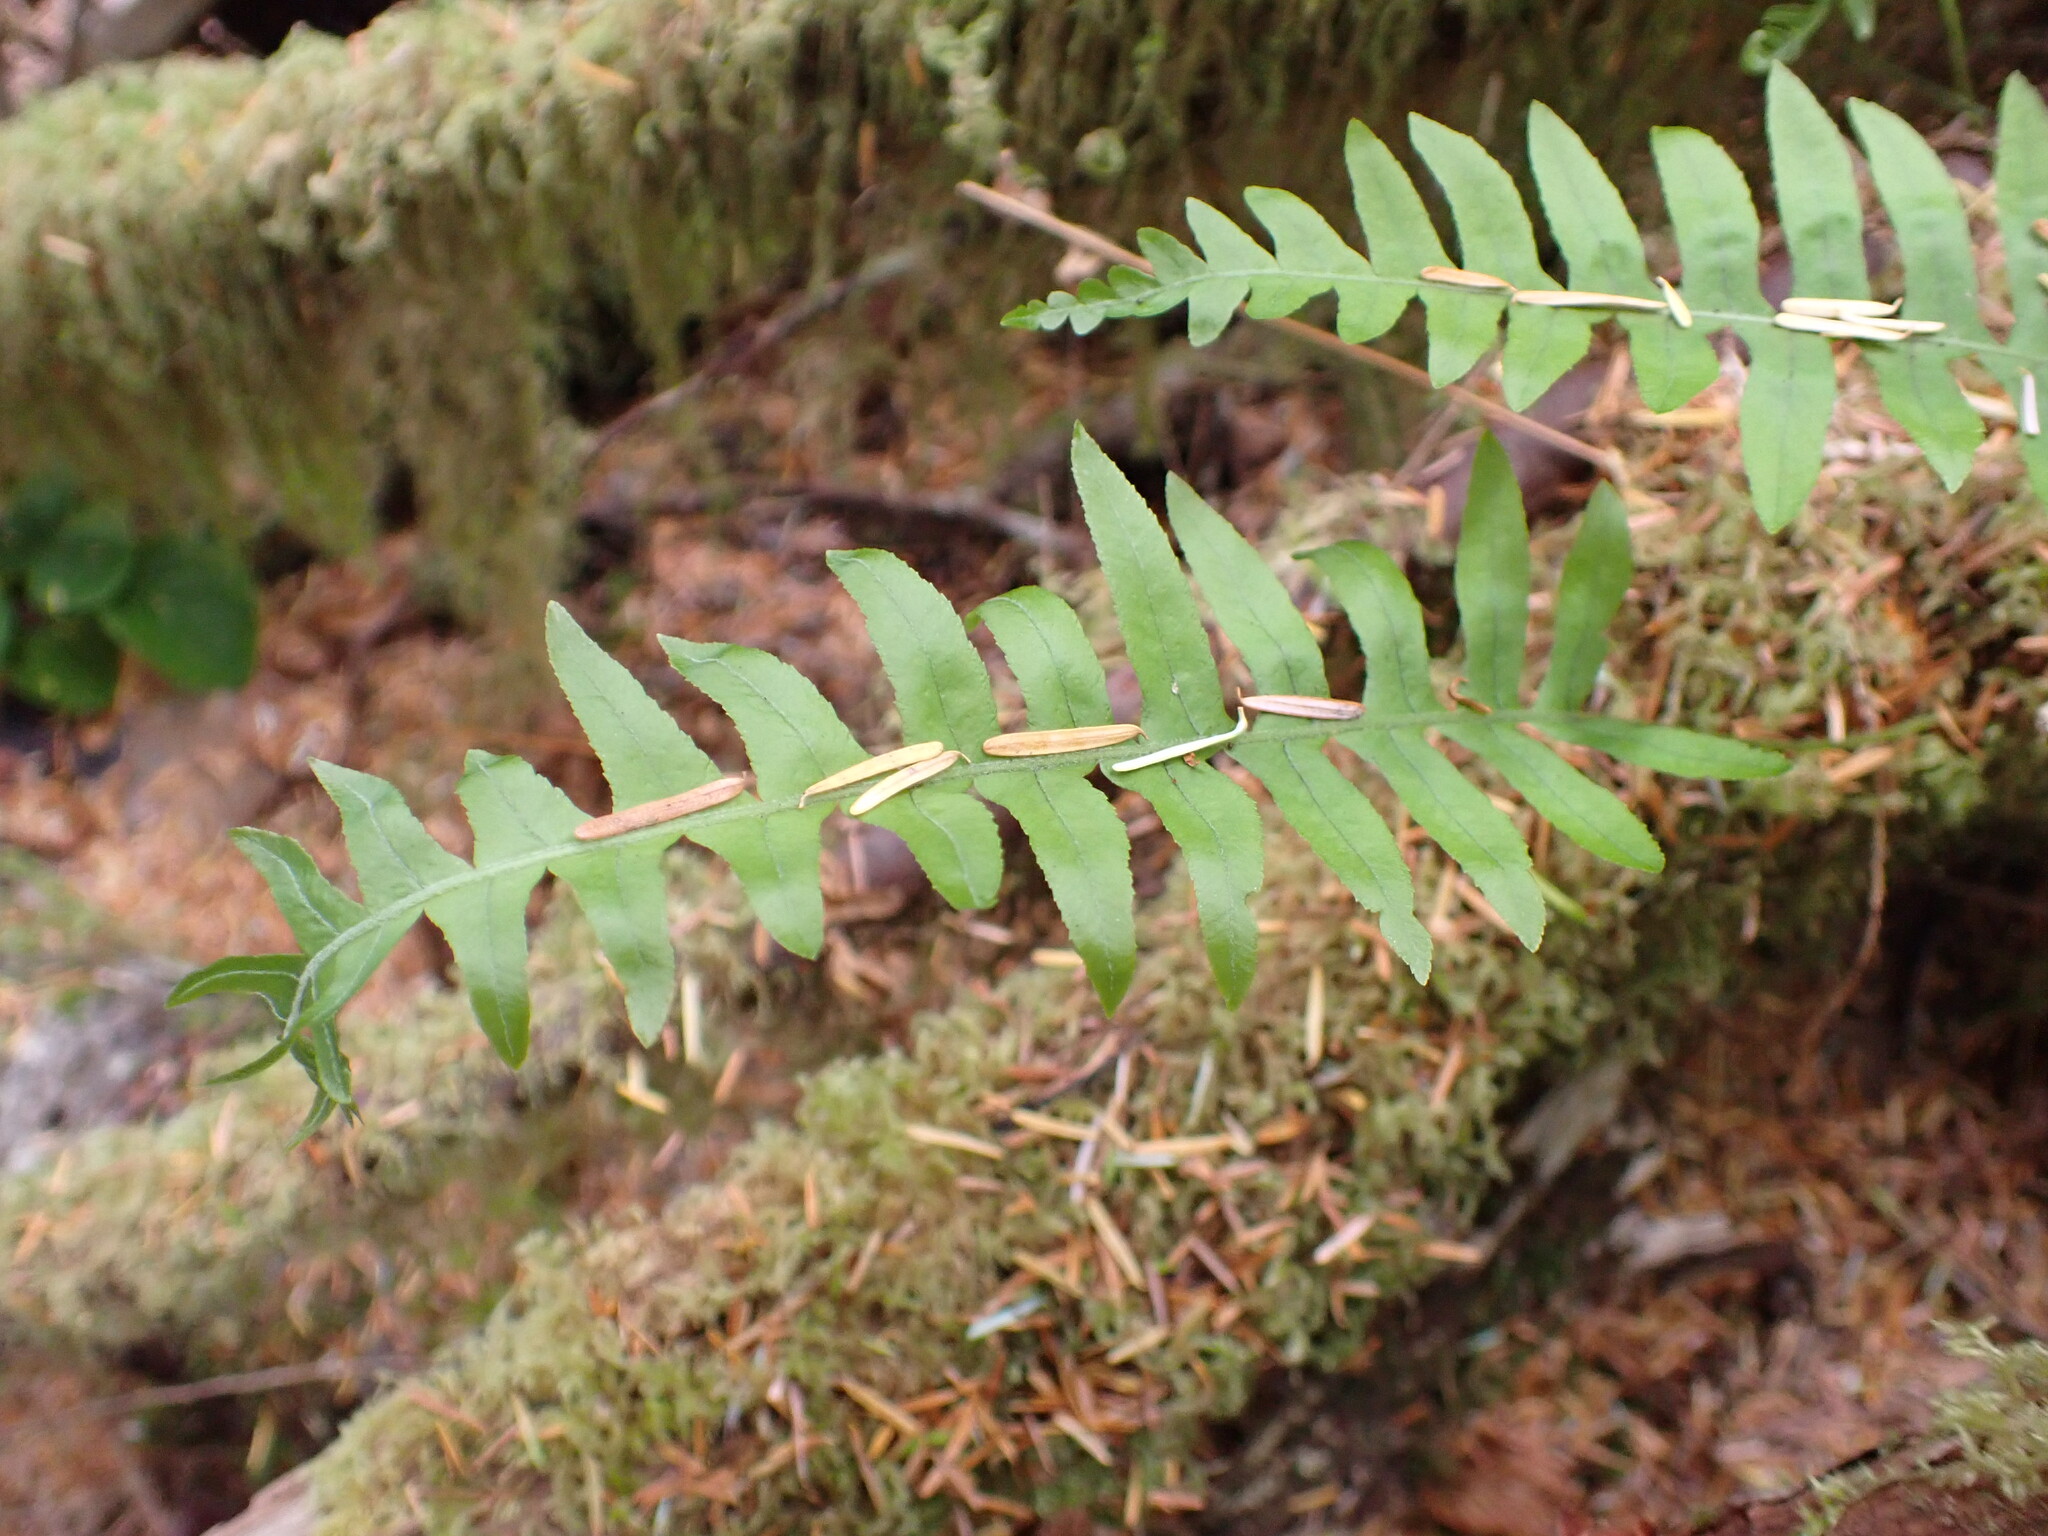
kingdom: Plantae
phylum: Tracheophyta
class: Polypodiopsida
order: Polypodiales
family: Polypodiaceae
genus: Polypodium
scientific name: Polypodium glycyrrhiza
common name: Licorice fern
